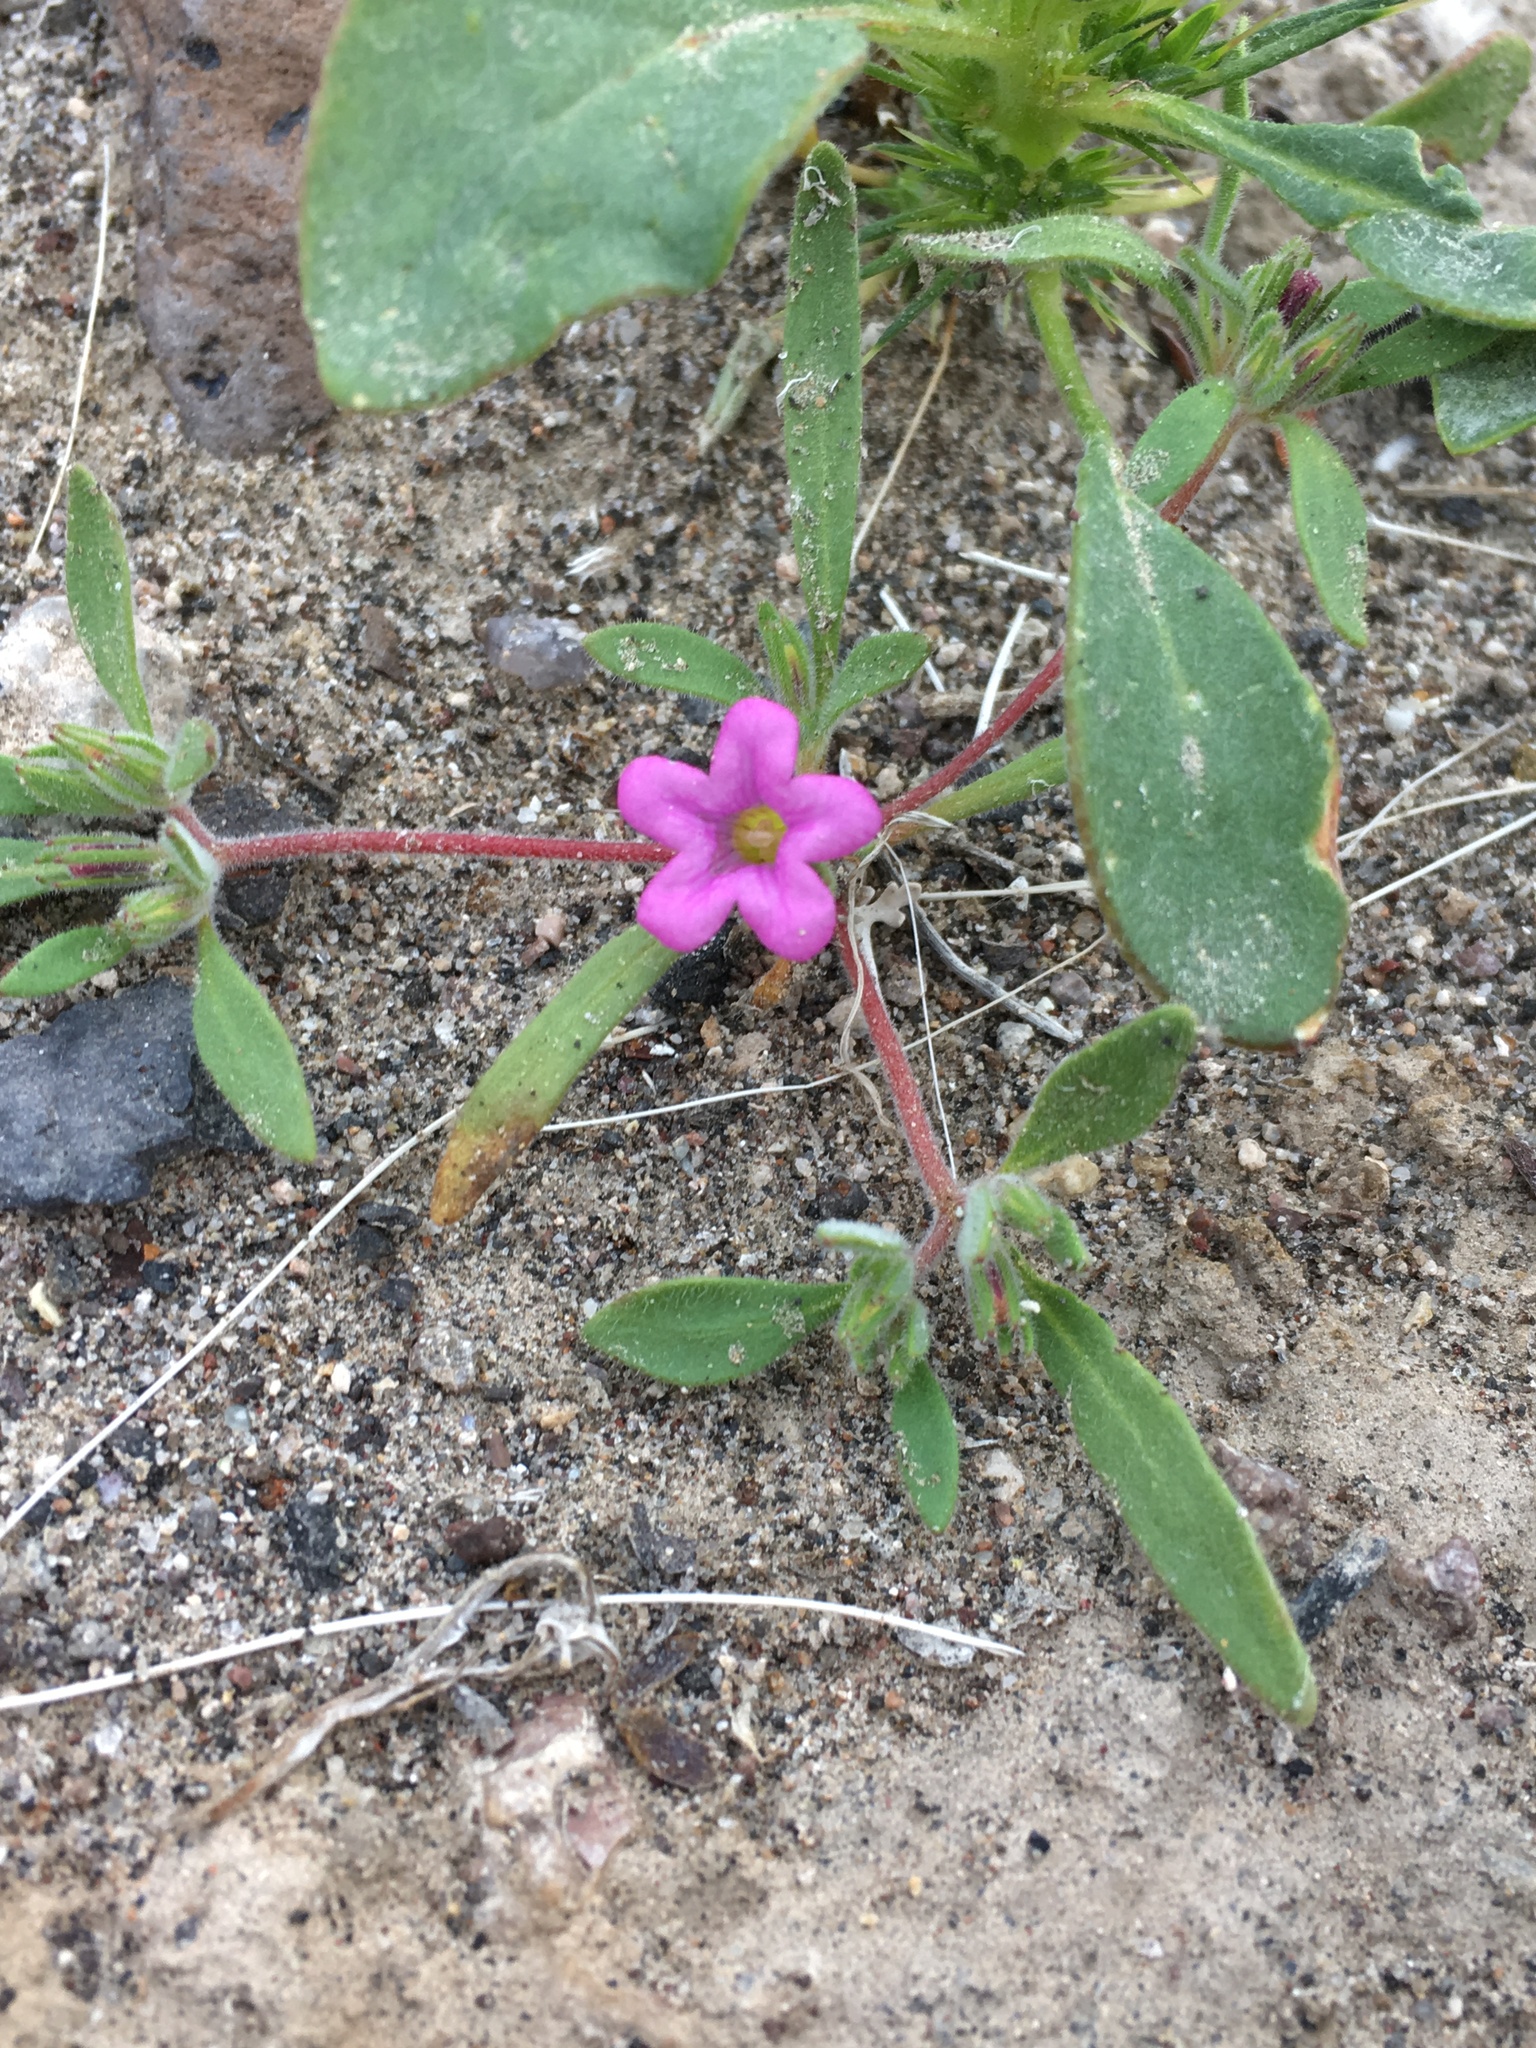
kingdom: Plantae
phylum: Tracheophyta
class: Magnoliopsida
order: Boraginales
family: Namaceae
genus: Nama
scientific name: Nama demissa
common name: Leafy nama
